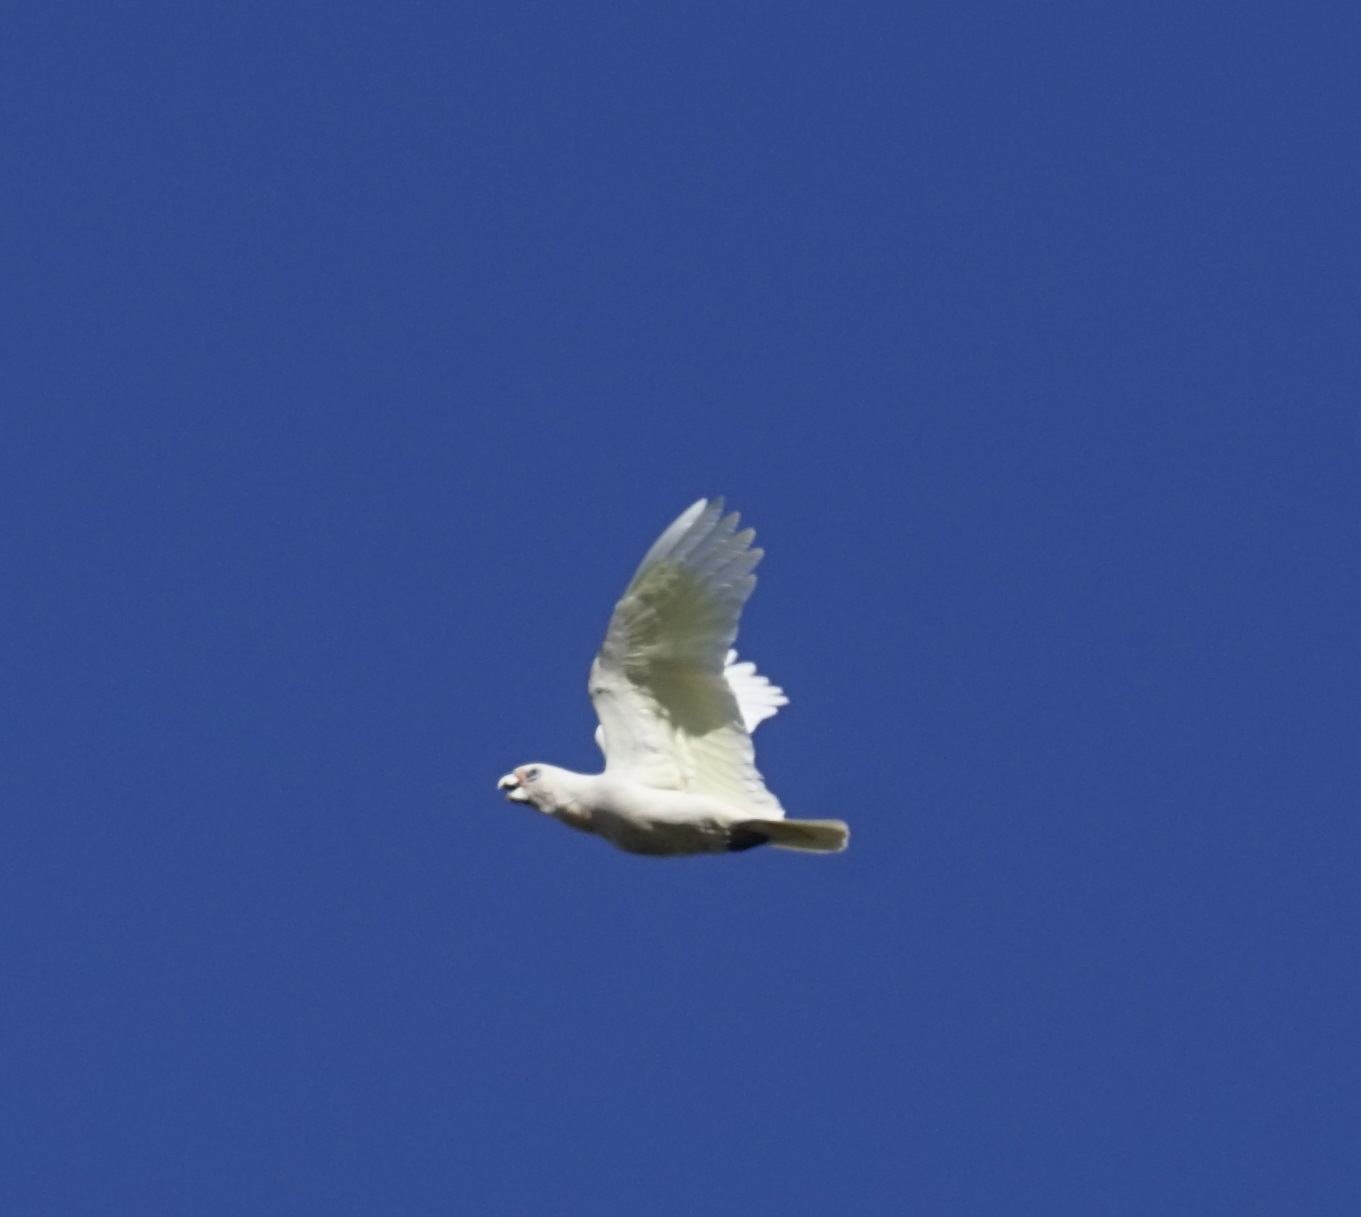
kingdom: Animalia
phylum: Chordata
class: Aves
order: Psittaciformes
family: Psittacidae
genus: Cacatua
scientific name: Cacatua sanguinea
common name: Little corella
